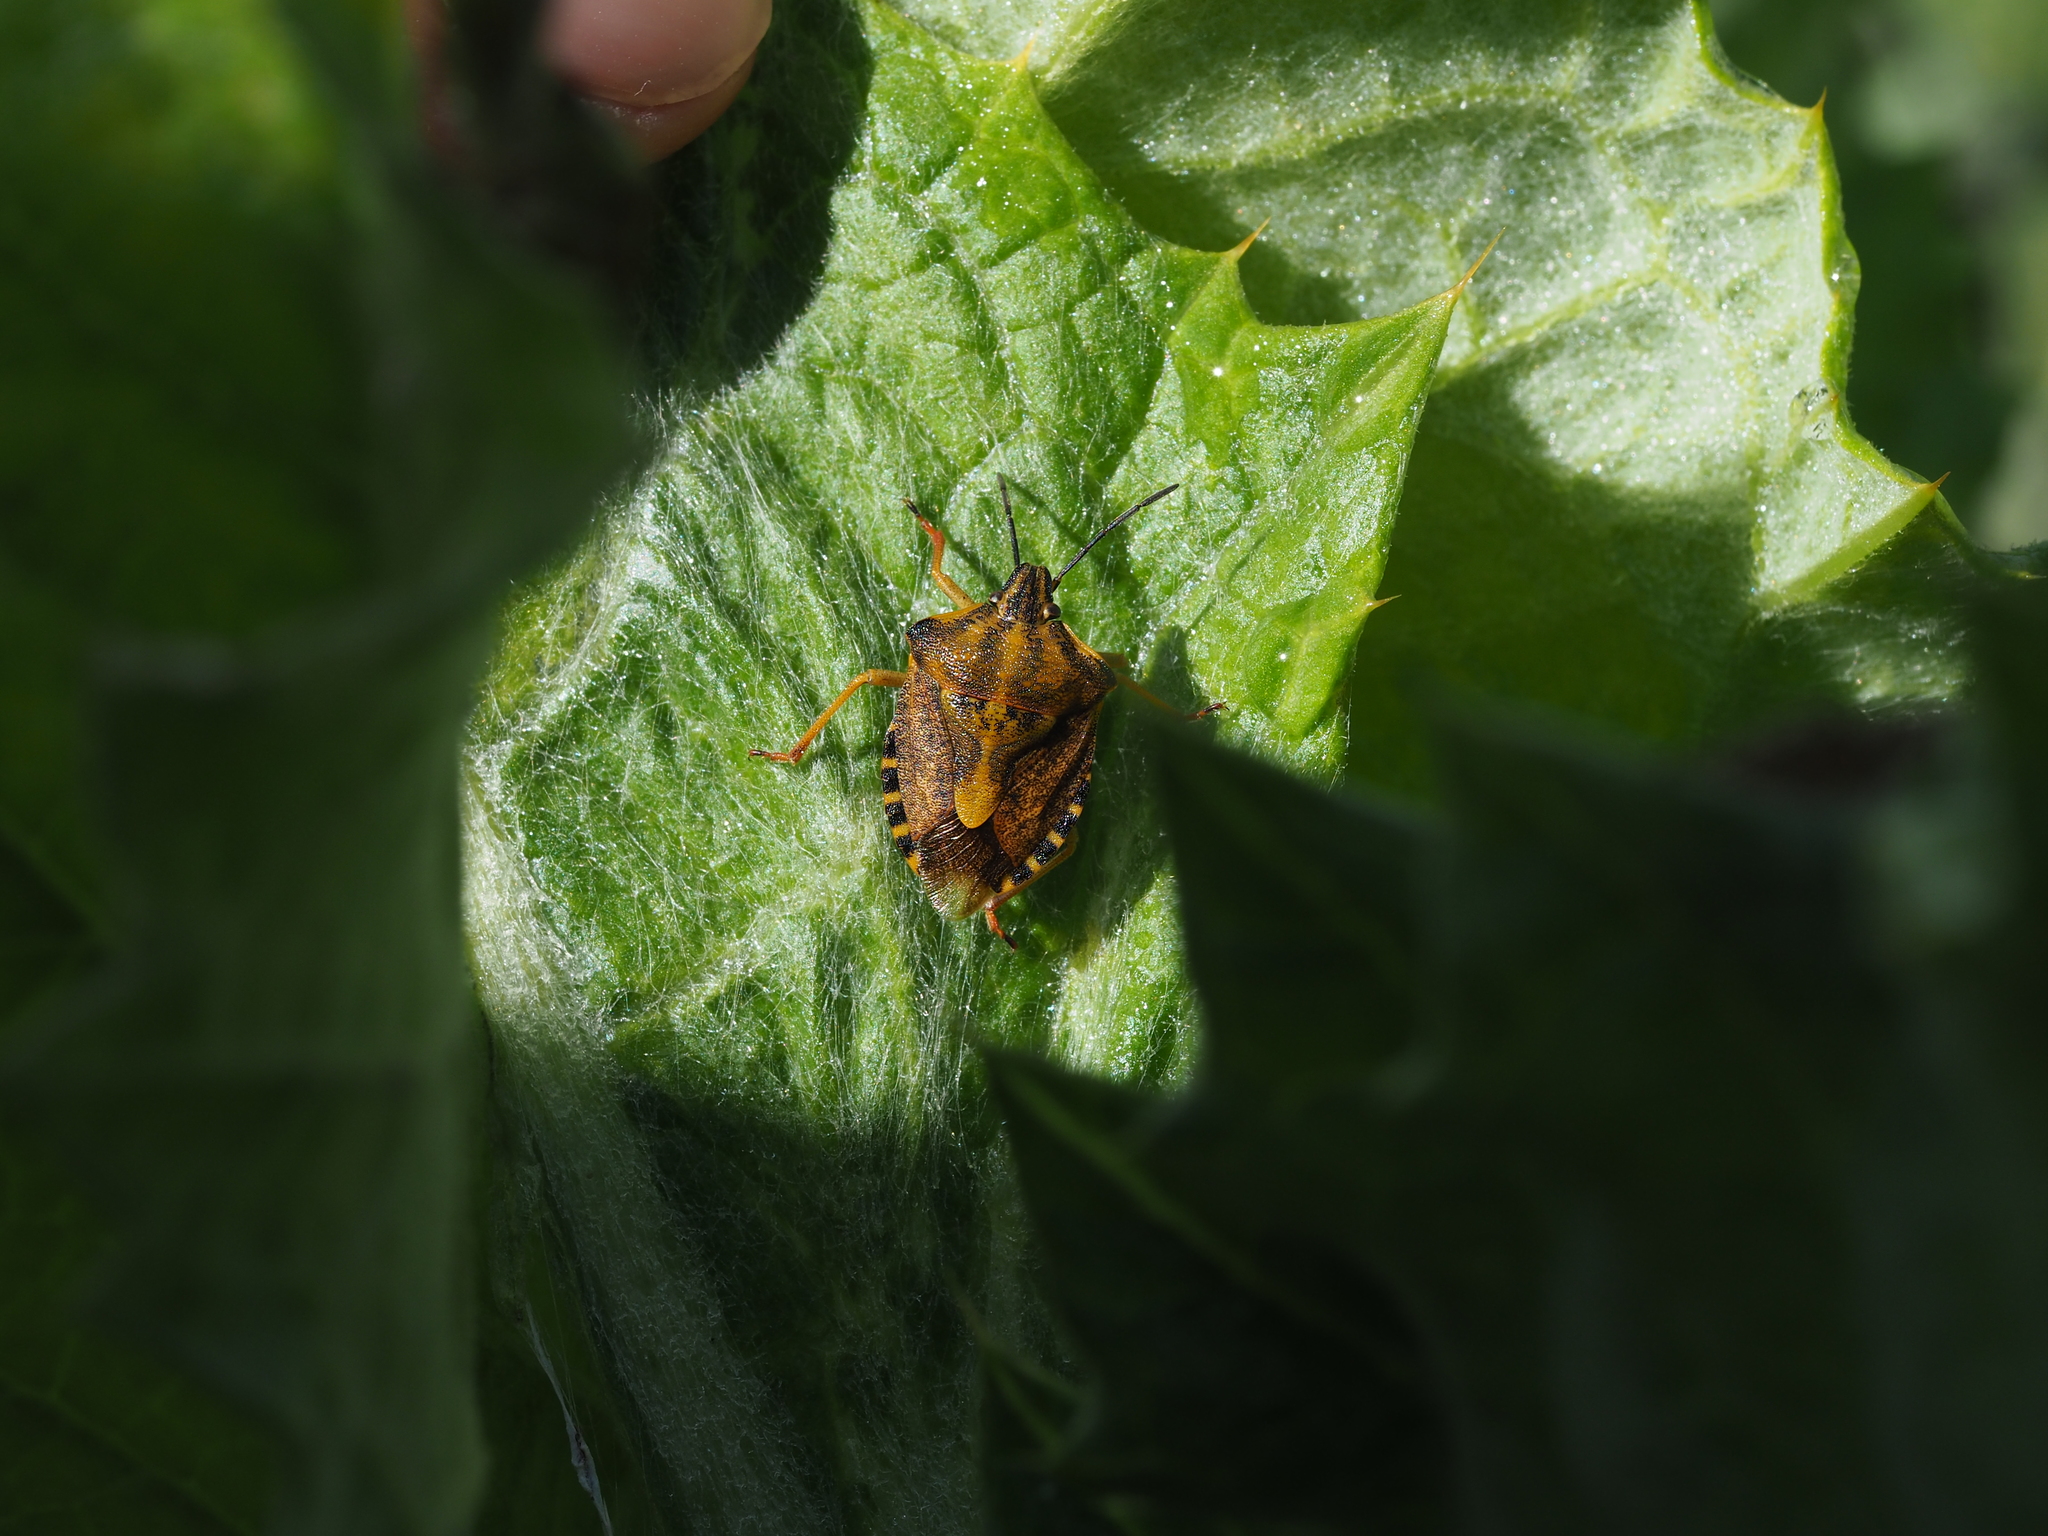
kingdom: Animalia
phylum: Arthropoda
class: Insecta
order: Hemiptera
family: Pentatomidae
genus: Carpocoris
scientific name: Carpocoris purpureipennis
